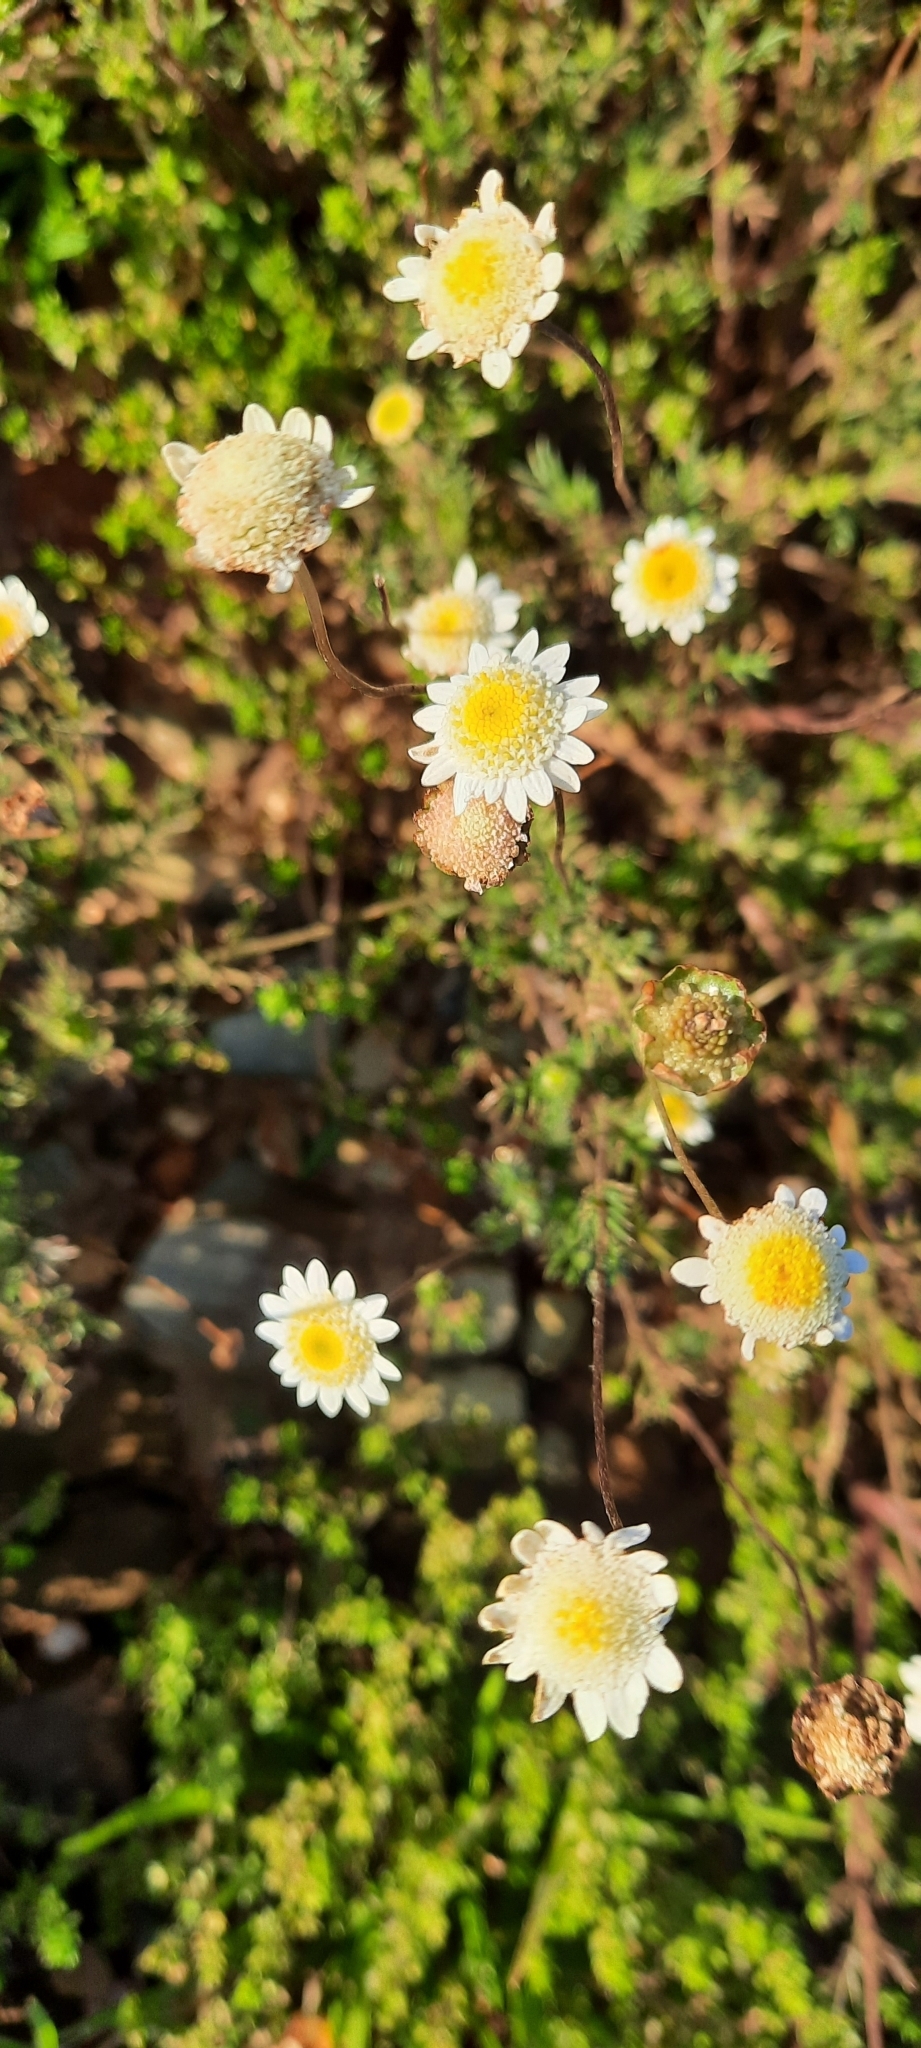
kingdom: Plantae
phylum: Tracheophyta
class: Magnoliopsida
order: Asterales
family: Asteraceae
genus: Cotula
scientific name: Cotula turbinata
